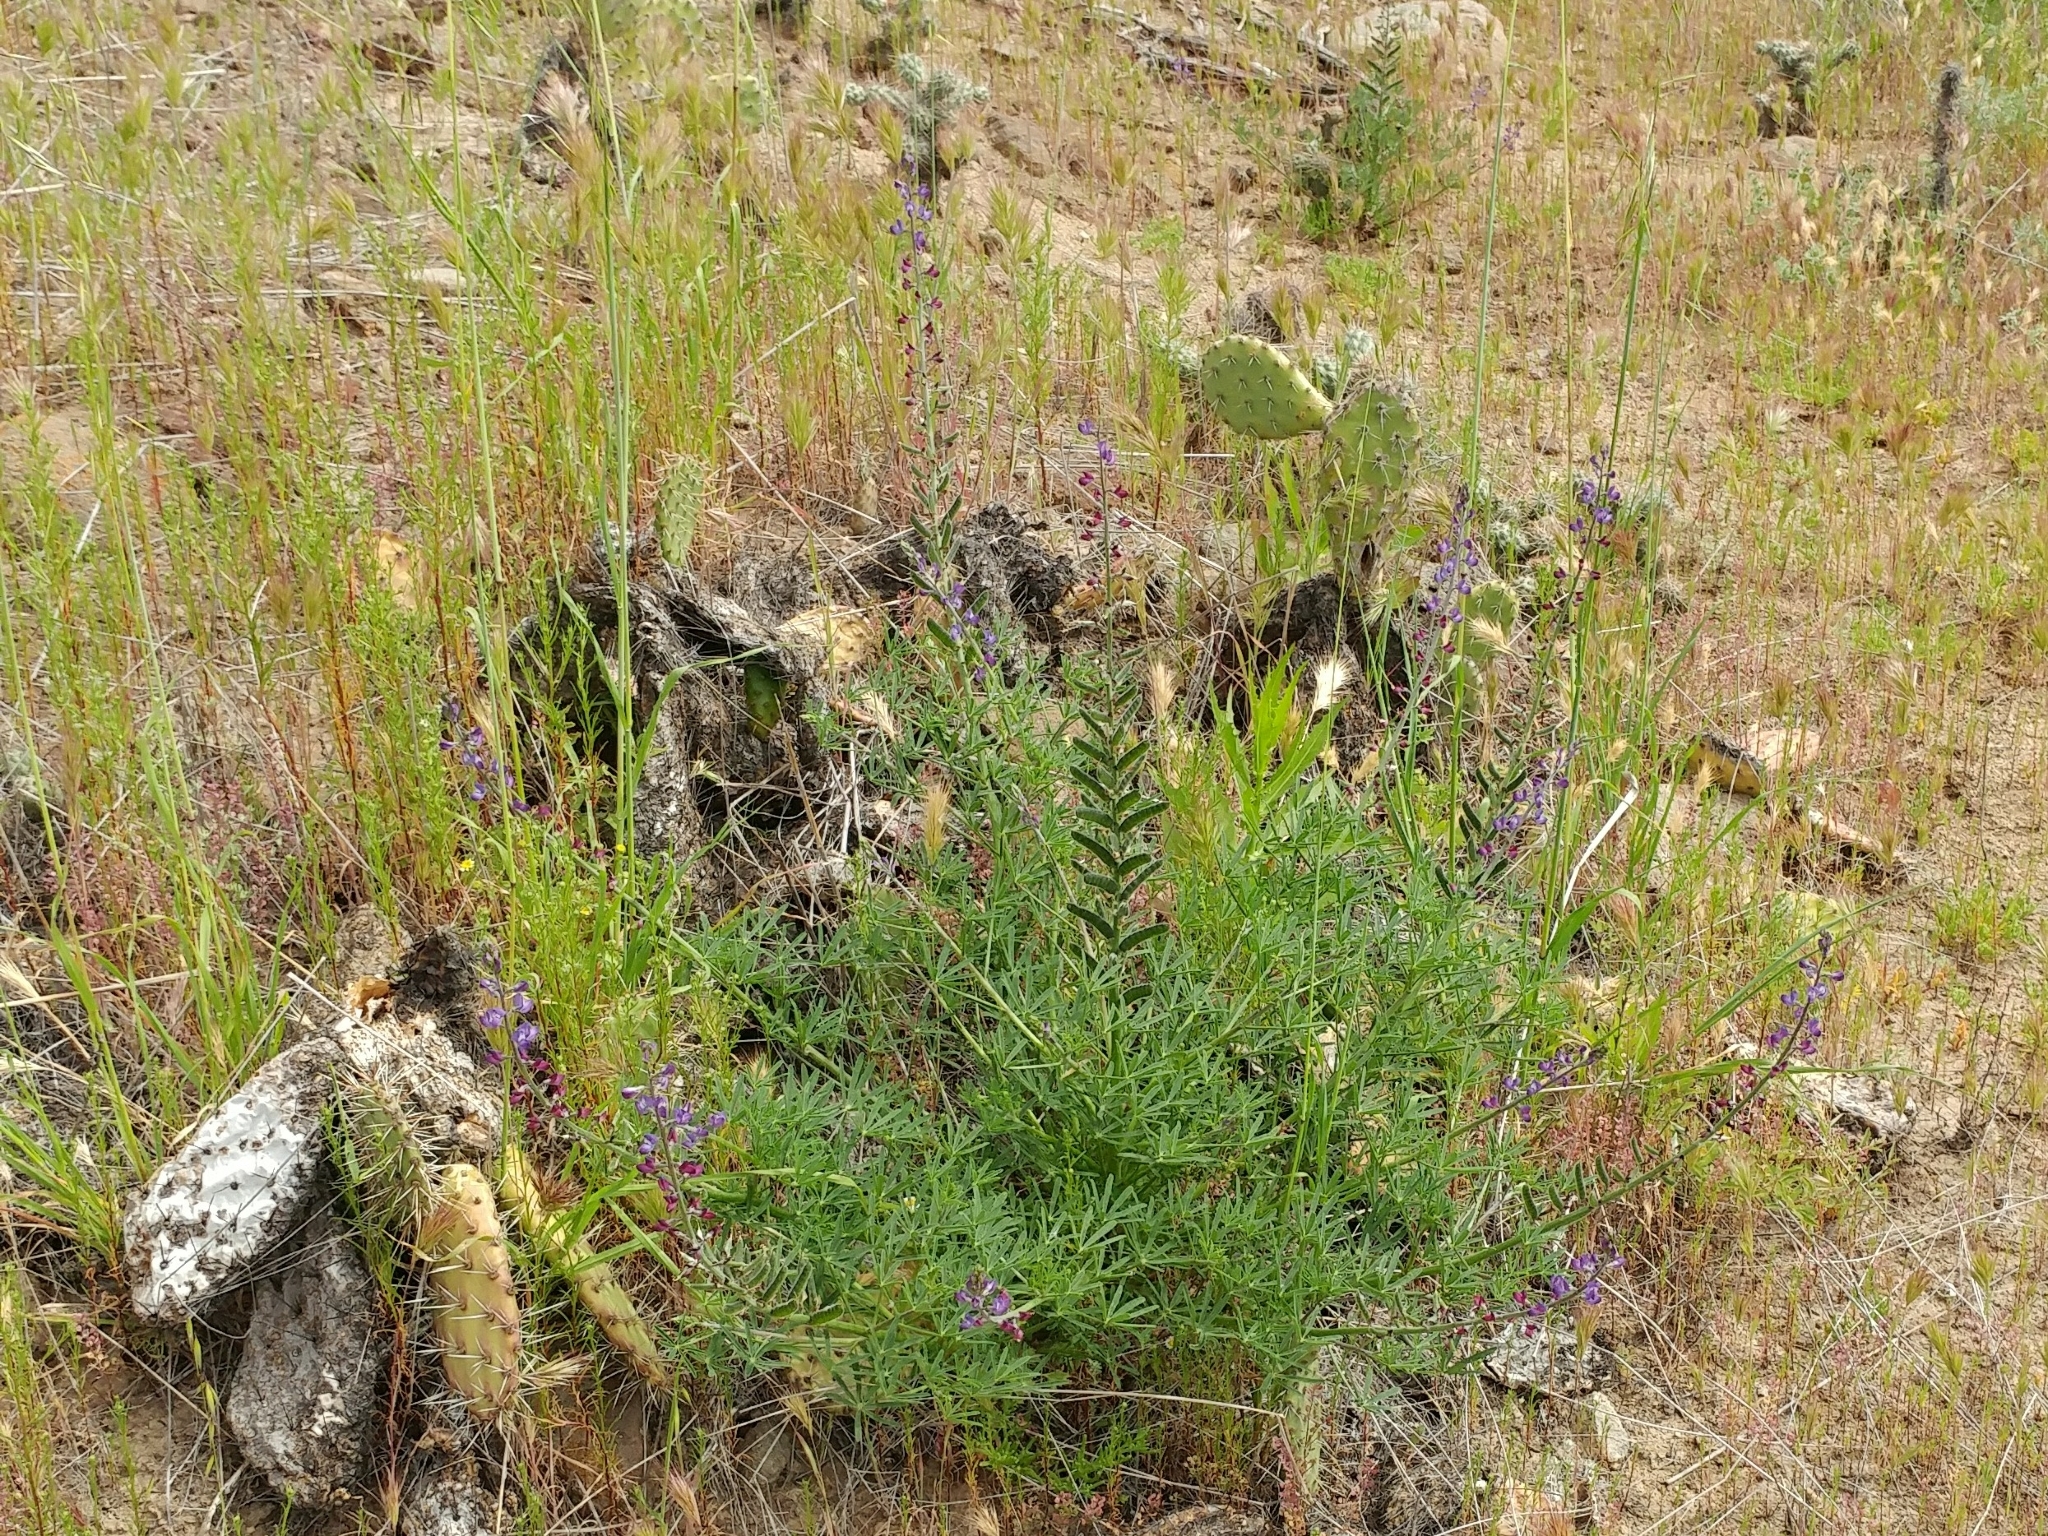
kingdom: Plantae
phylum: Tracheophyta
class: Magnoliopsida
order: Fabales
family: Fabaceae
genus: Lupinus
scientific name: Lupinus truncatus
